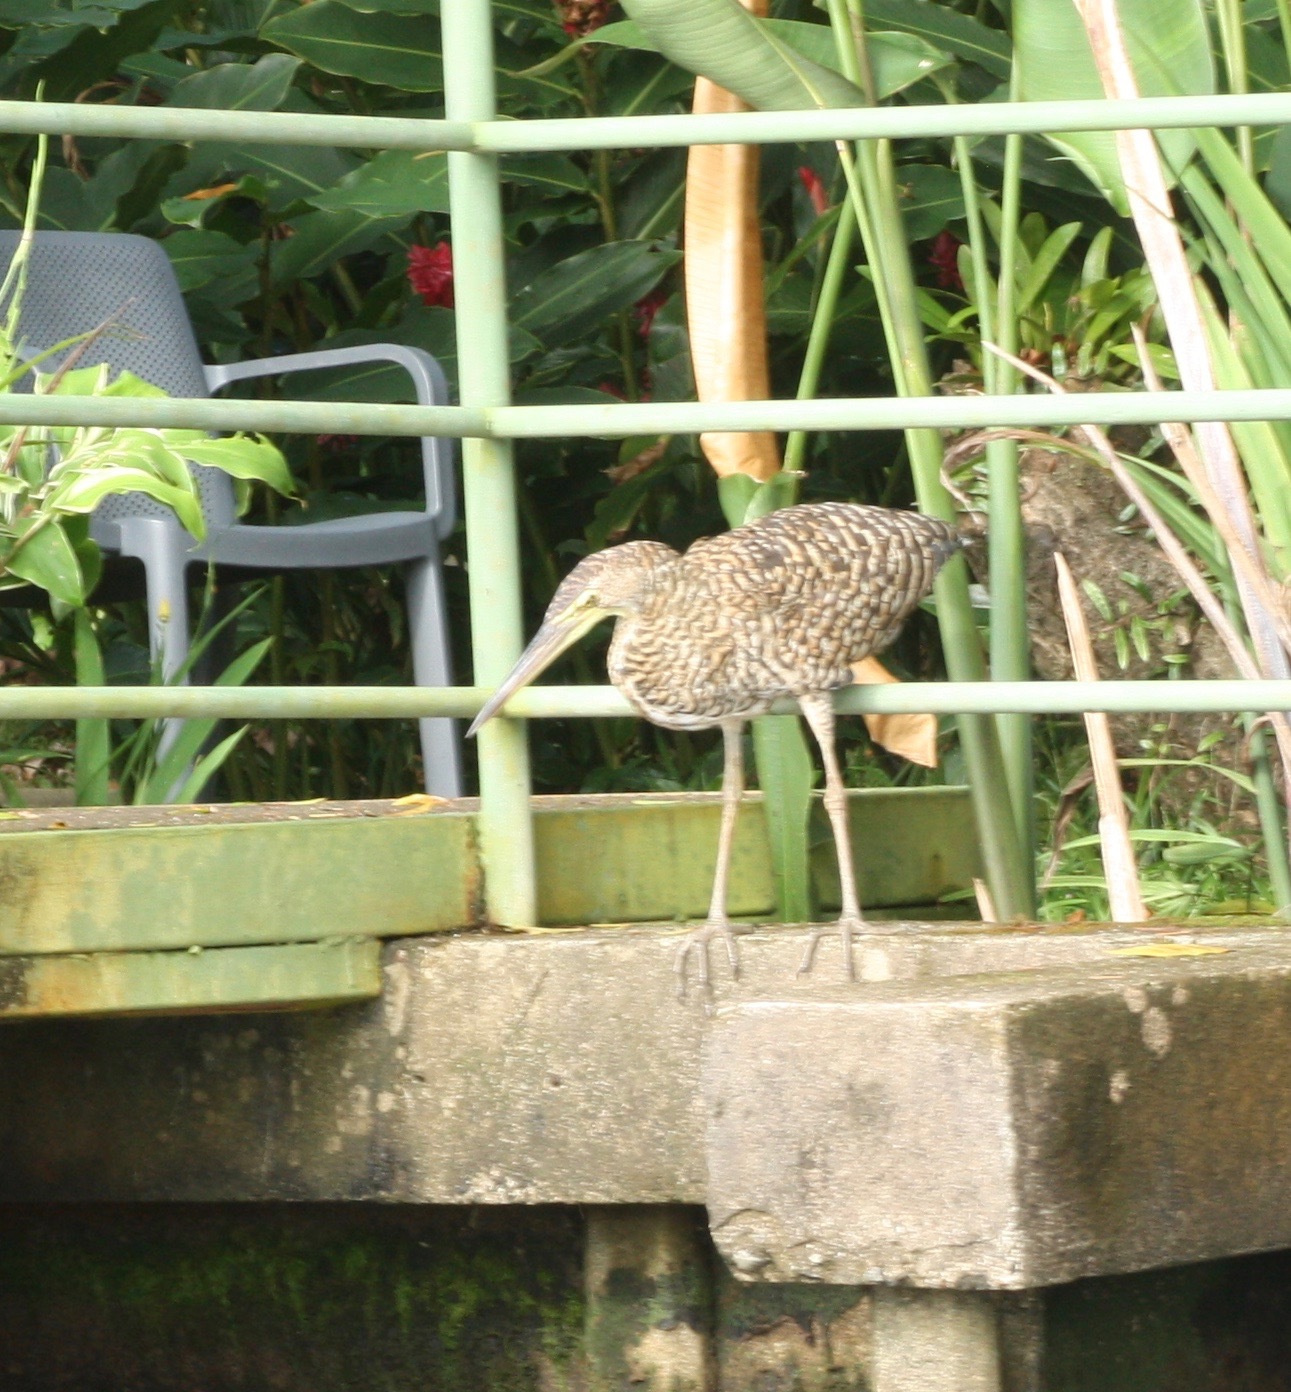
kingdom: Animalia
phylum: Chordata
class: Aves
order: Pelecaniformes
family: Ardeidae
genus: Tigrisoma
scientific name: Tigrisoma mexicanum
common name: Bare-throated tiger-heron
